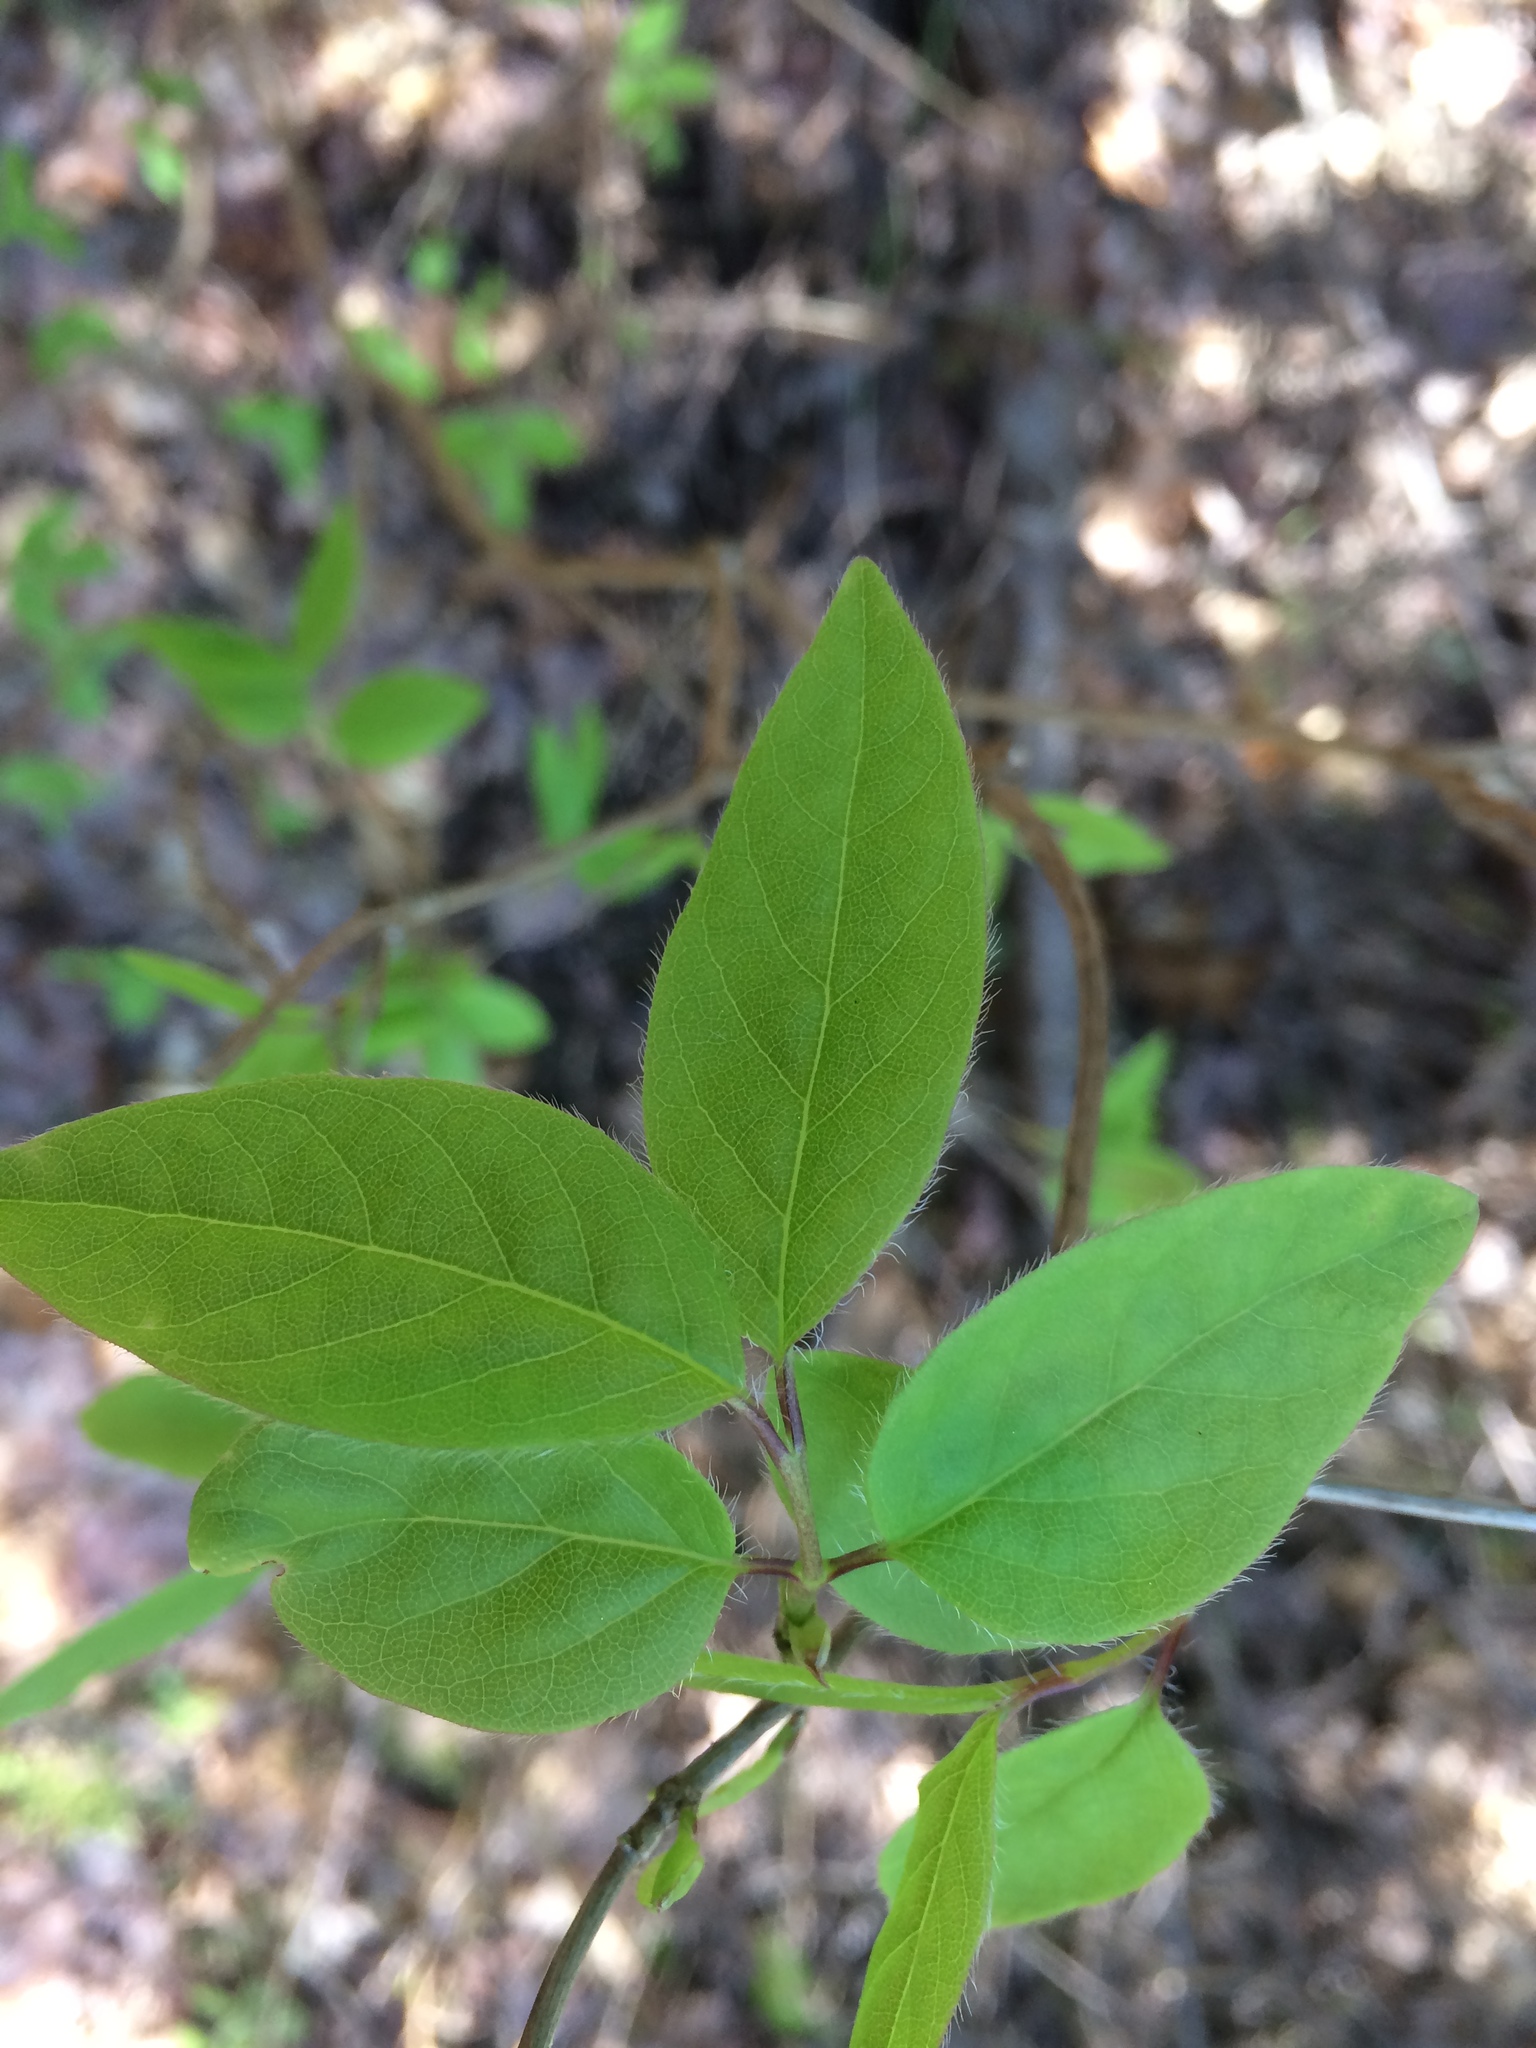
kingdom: Plantae
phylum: Tracheophyta
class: Magnoliopsida
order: Dipsacales
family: Caprifoliaceae
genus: Lonicera
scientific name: Lonicera canadensis
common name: American fly-honeysuckle
